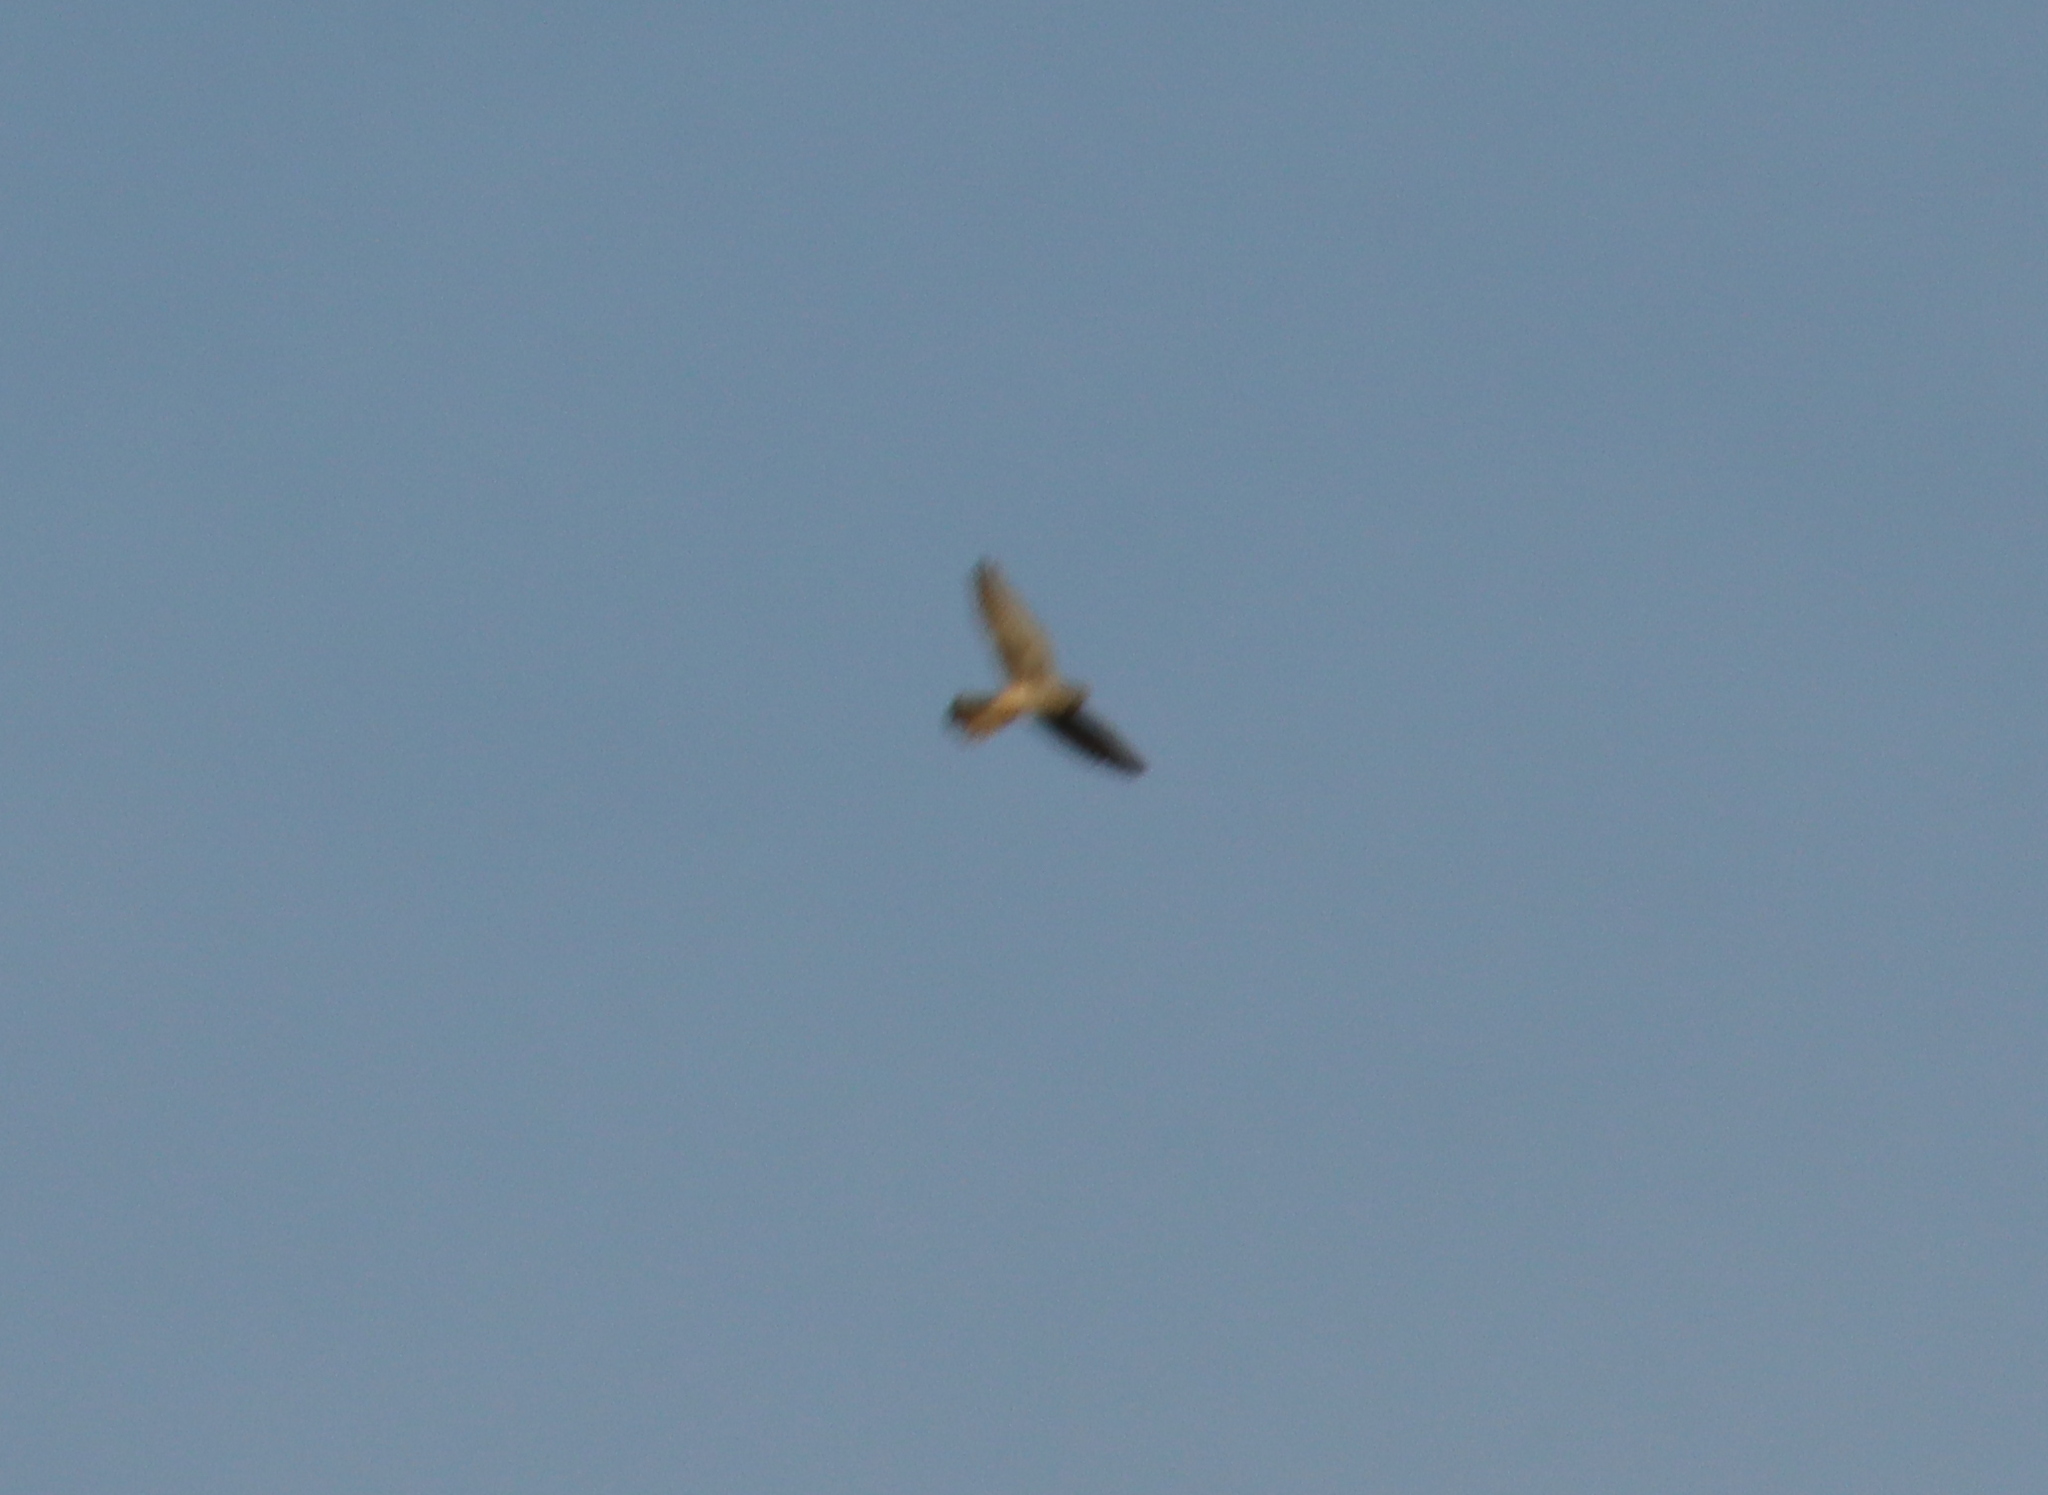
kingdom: Animalia
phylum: Chordata
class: Aves
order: Falconiformes
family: Falconidae
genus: Falco
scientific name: Falco tinnunculus
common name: Common kestrel
